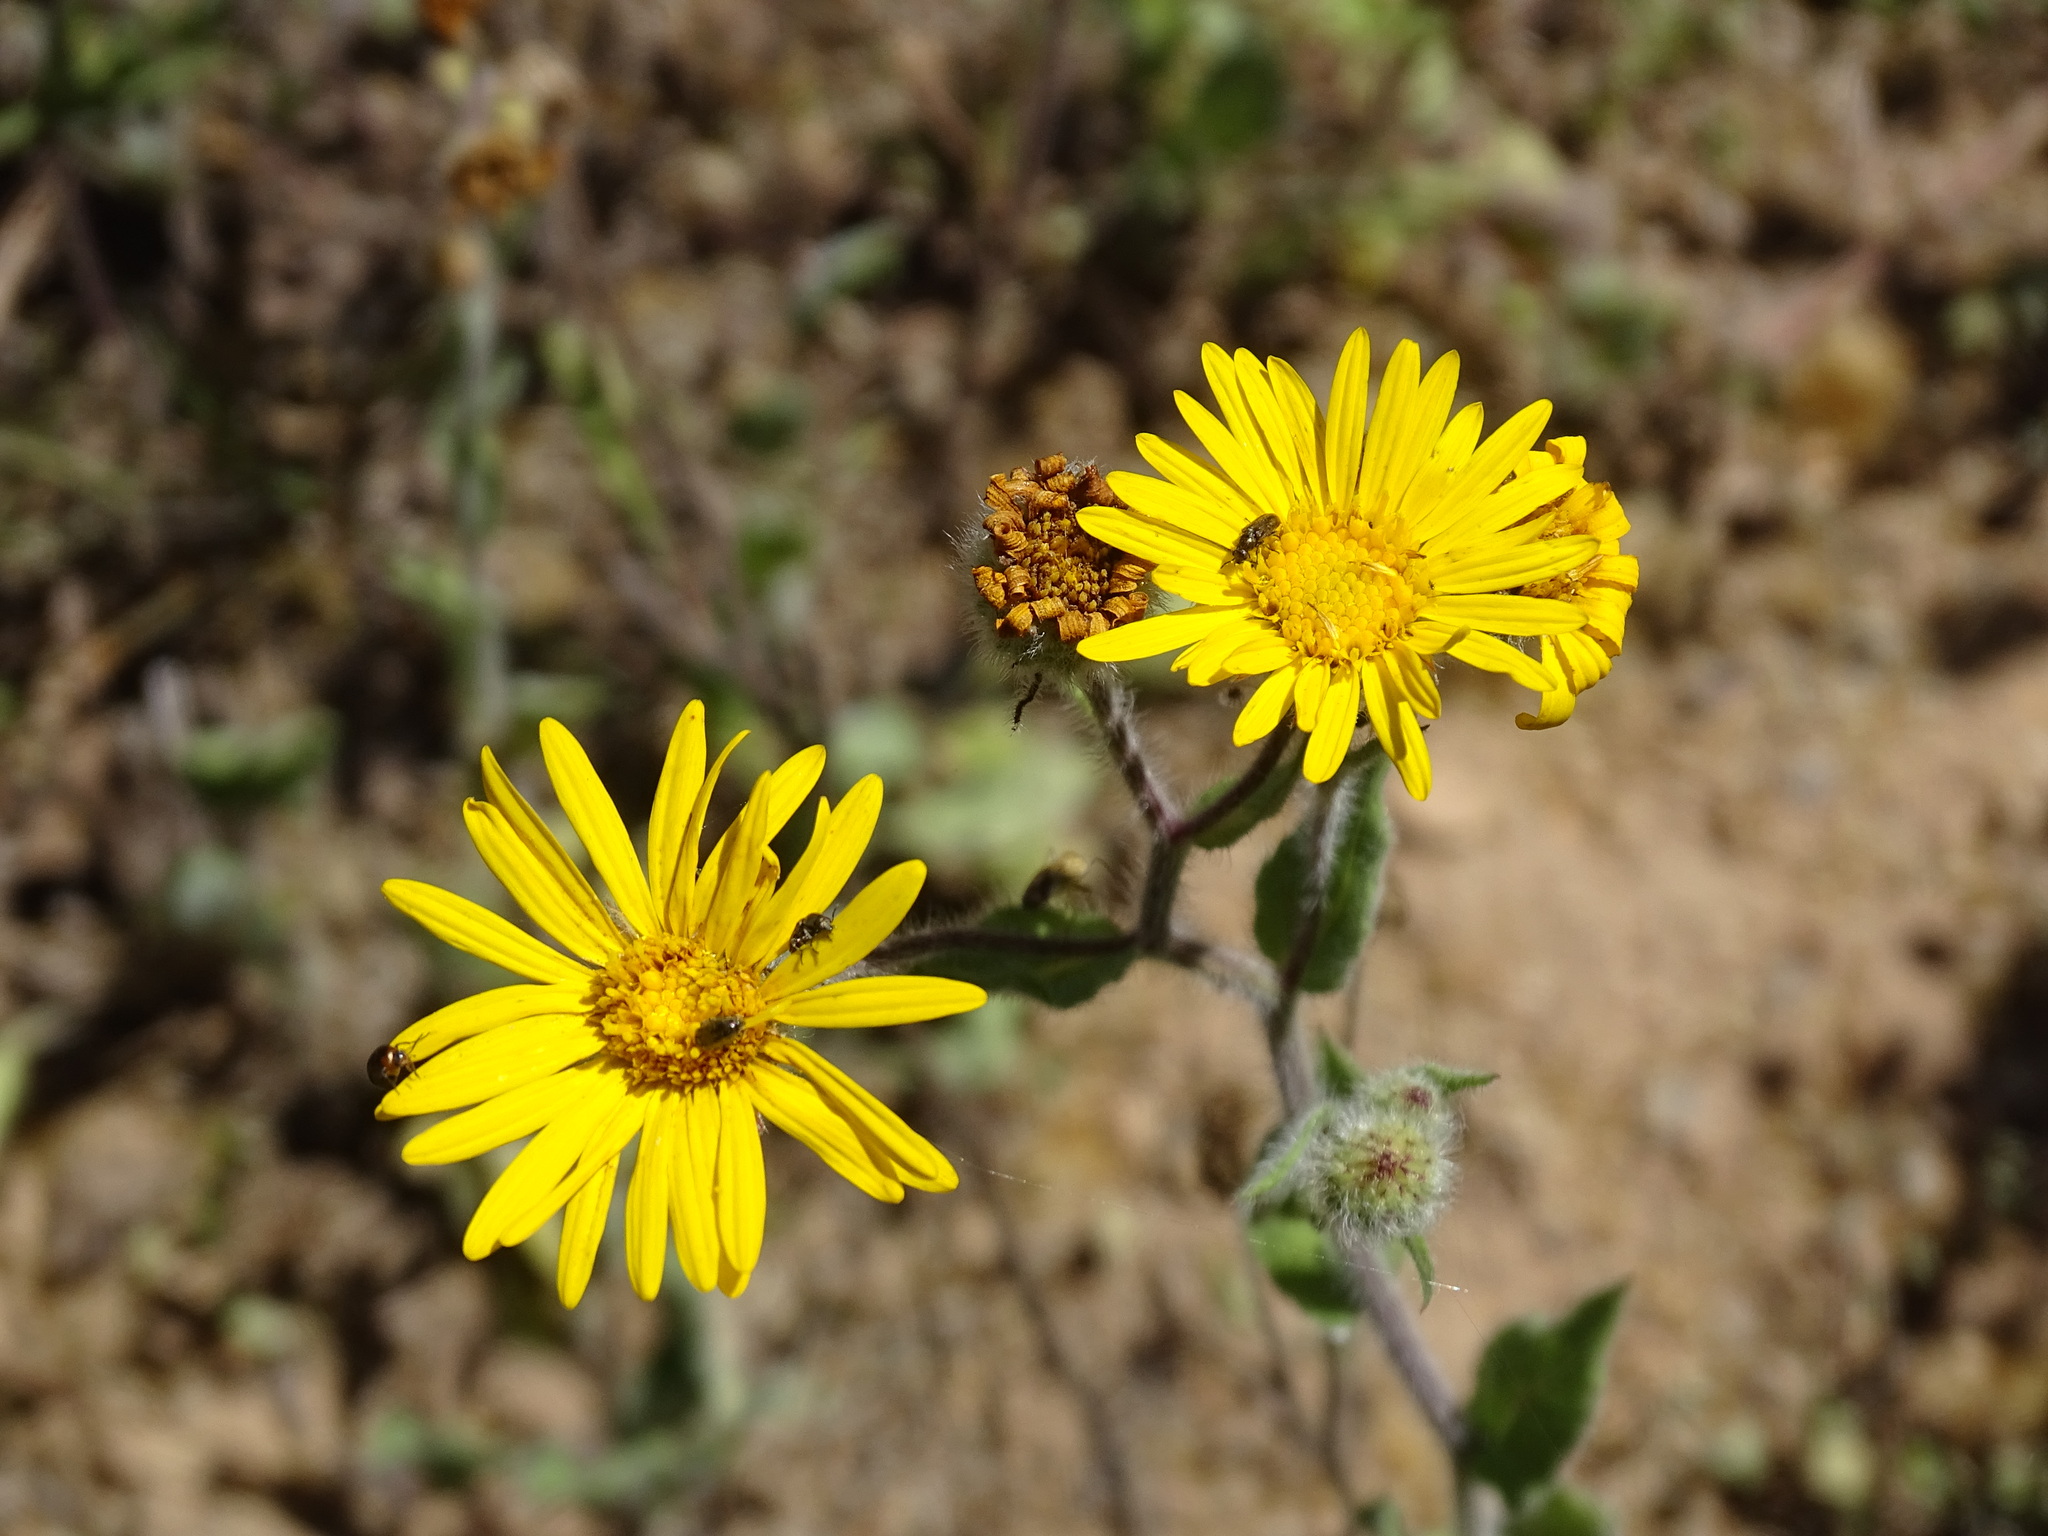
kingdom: Plantae
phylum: Tracheophyta
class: Magnoliopsida
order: Asterales
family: Asteraceae
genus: Heterotheca
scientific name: Heterotheca inuloides
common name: False arnica
